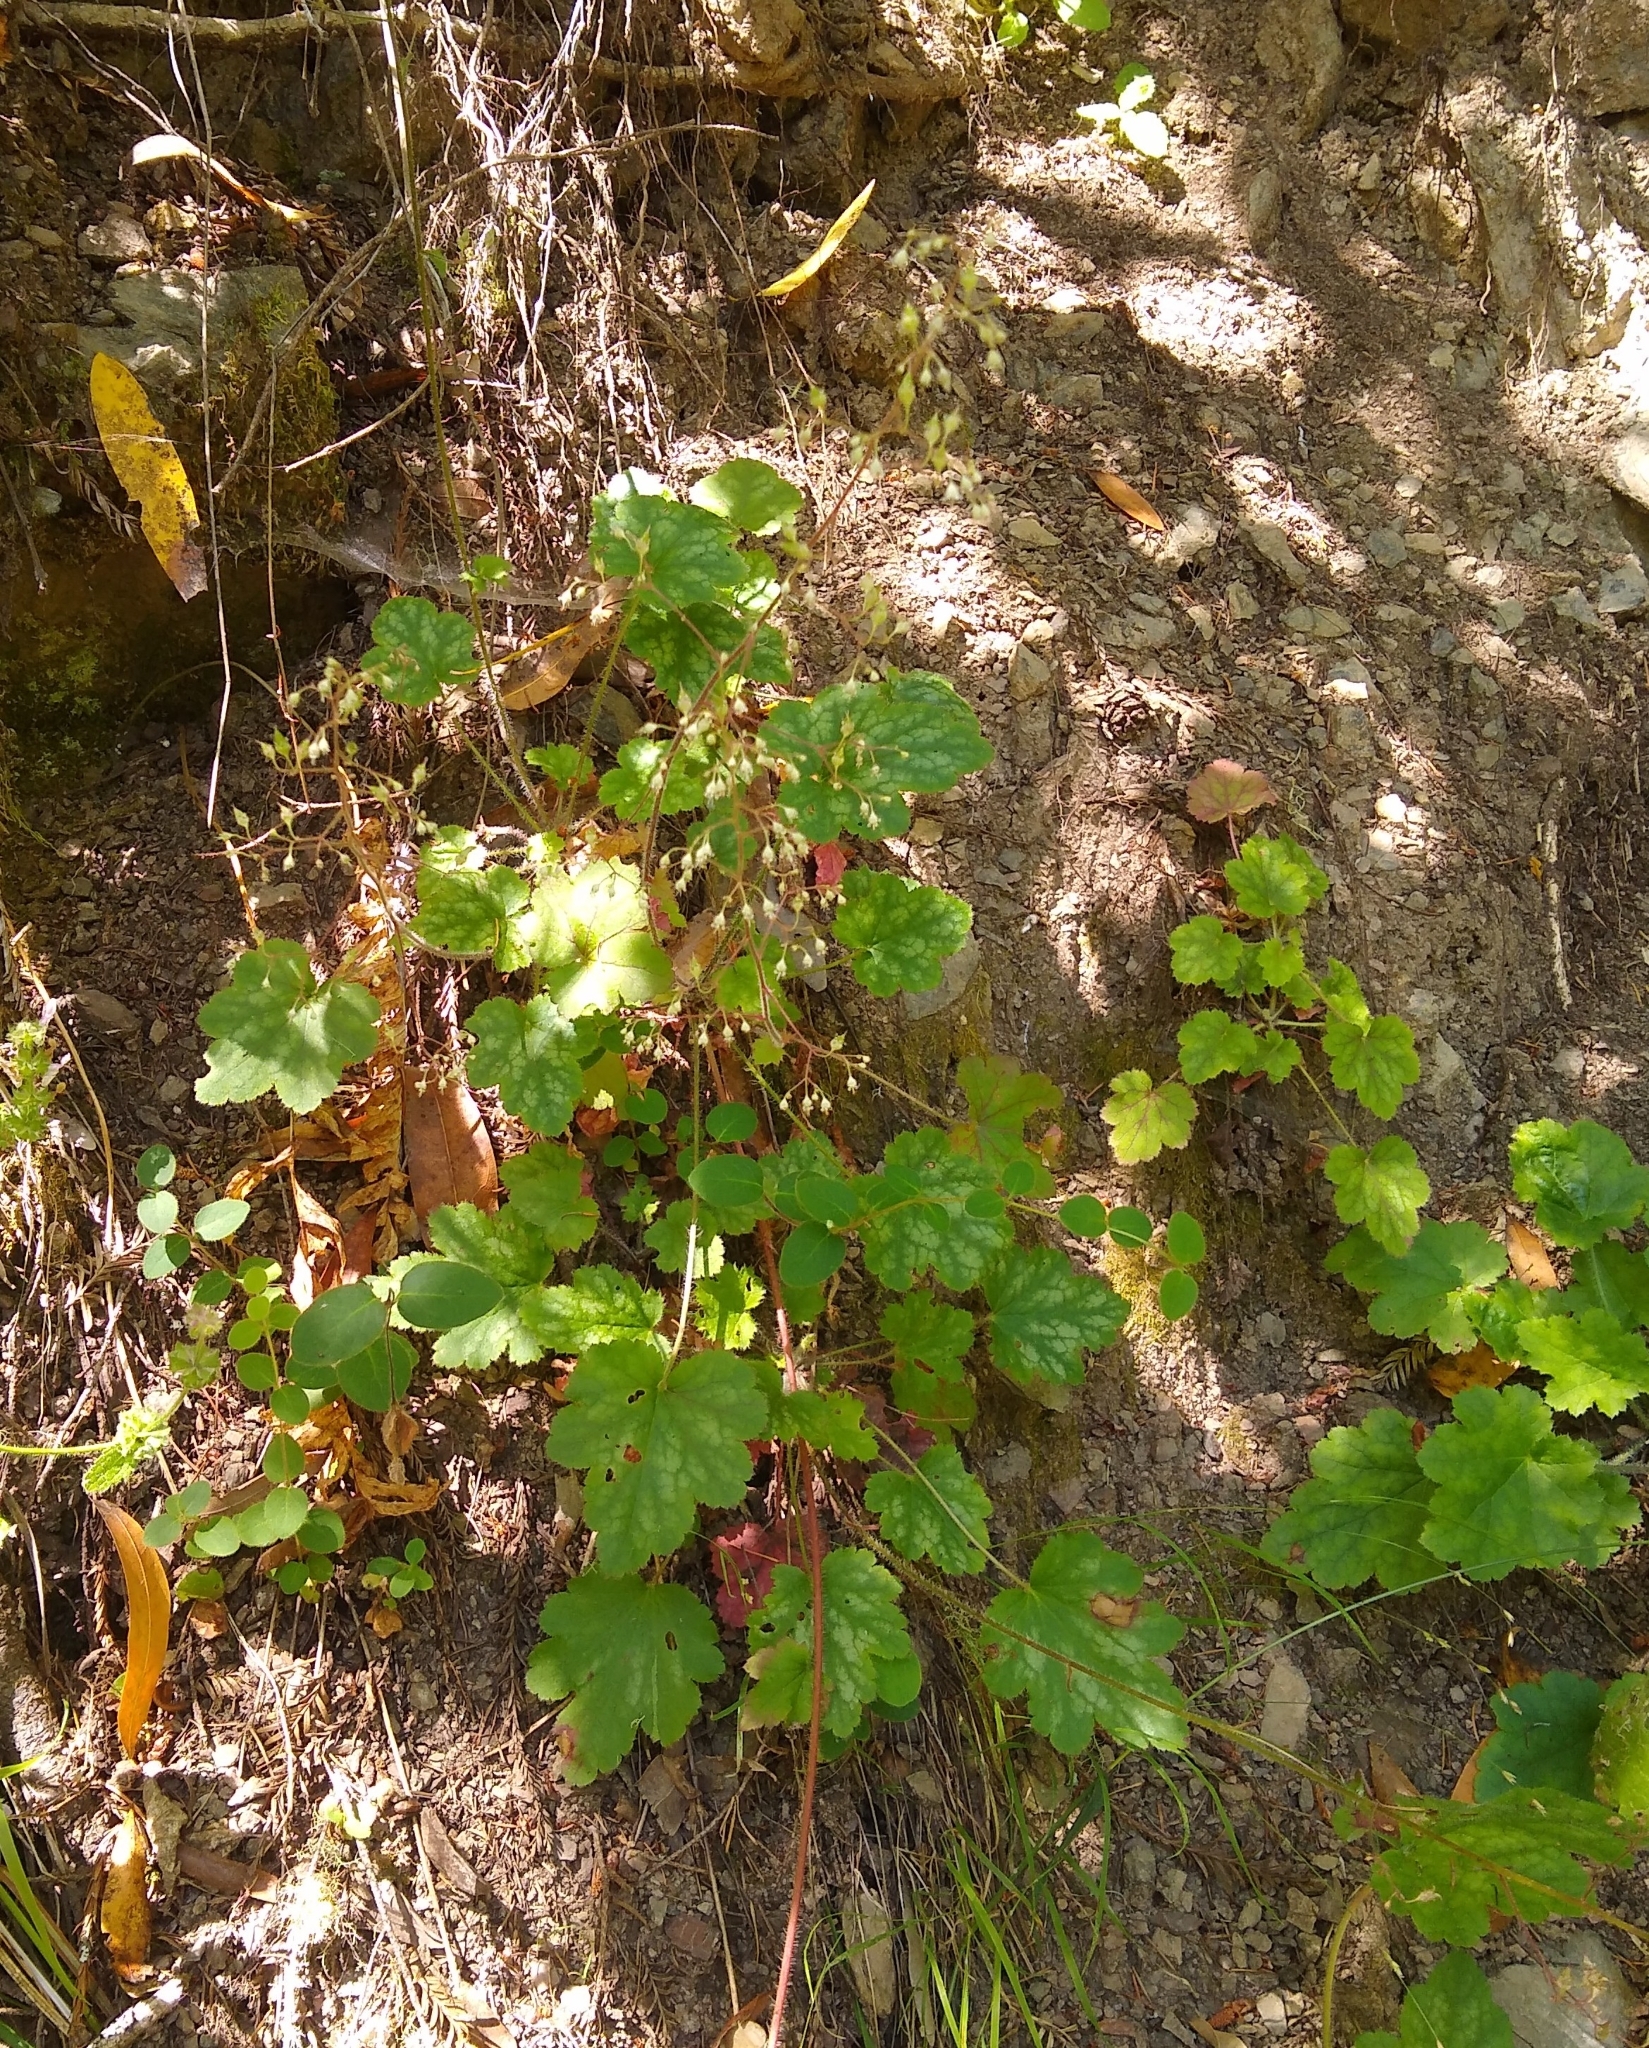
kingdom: Plantae
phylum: Tracheophyta
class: Magnoliopsida
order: Saxifragales
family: Saxifragaceae
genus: Heuchera
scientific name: Heuchera micrantha
